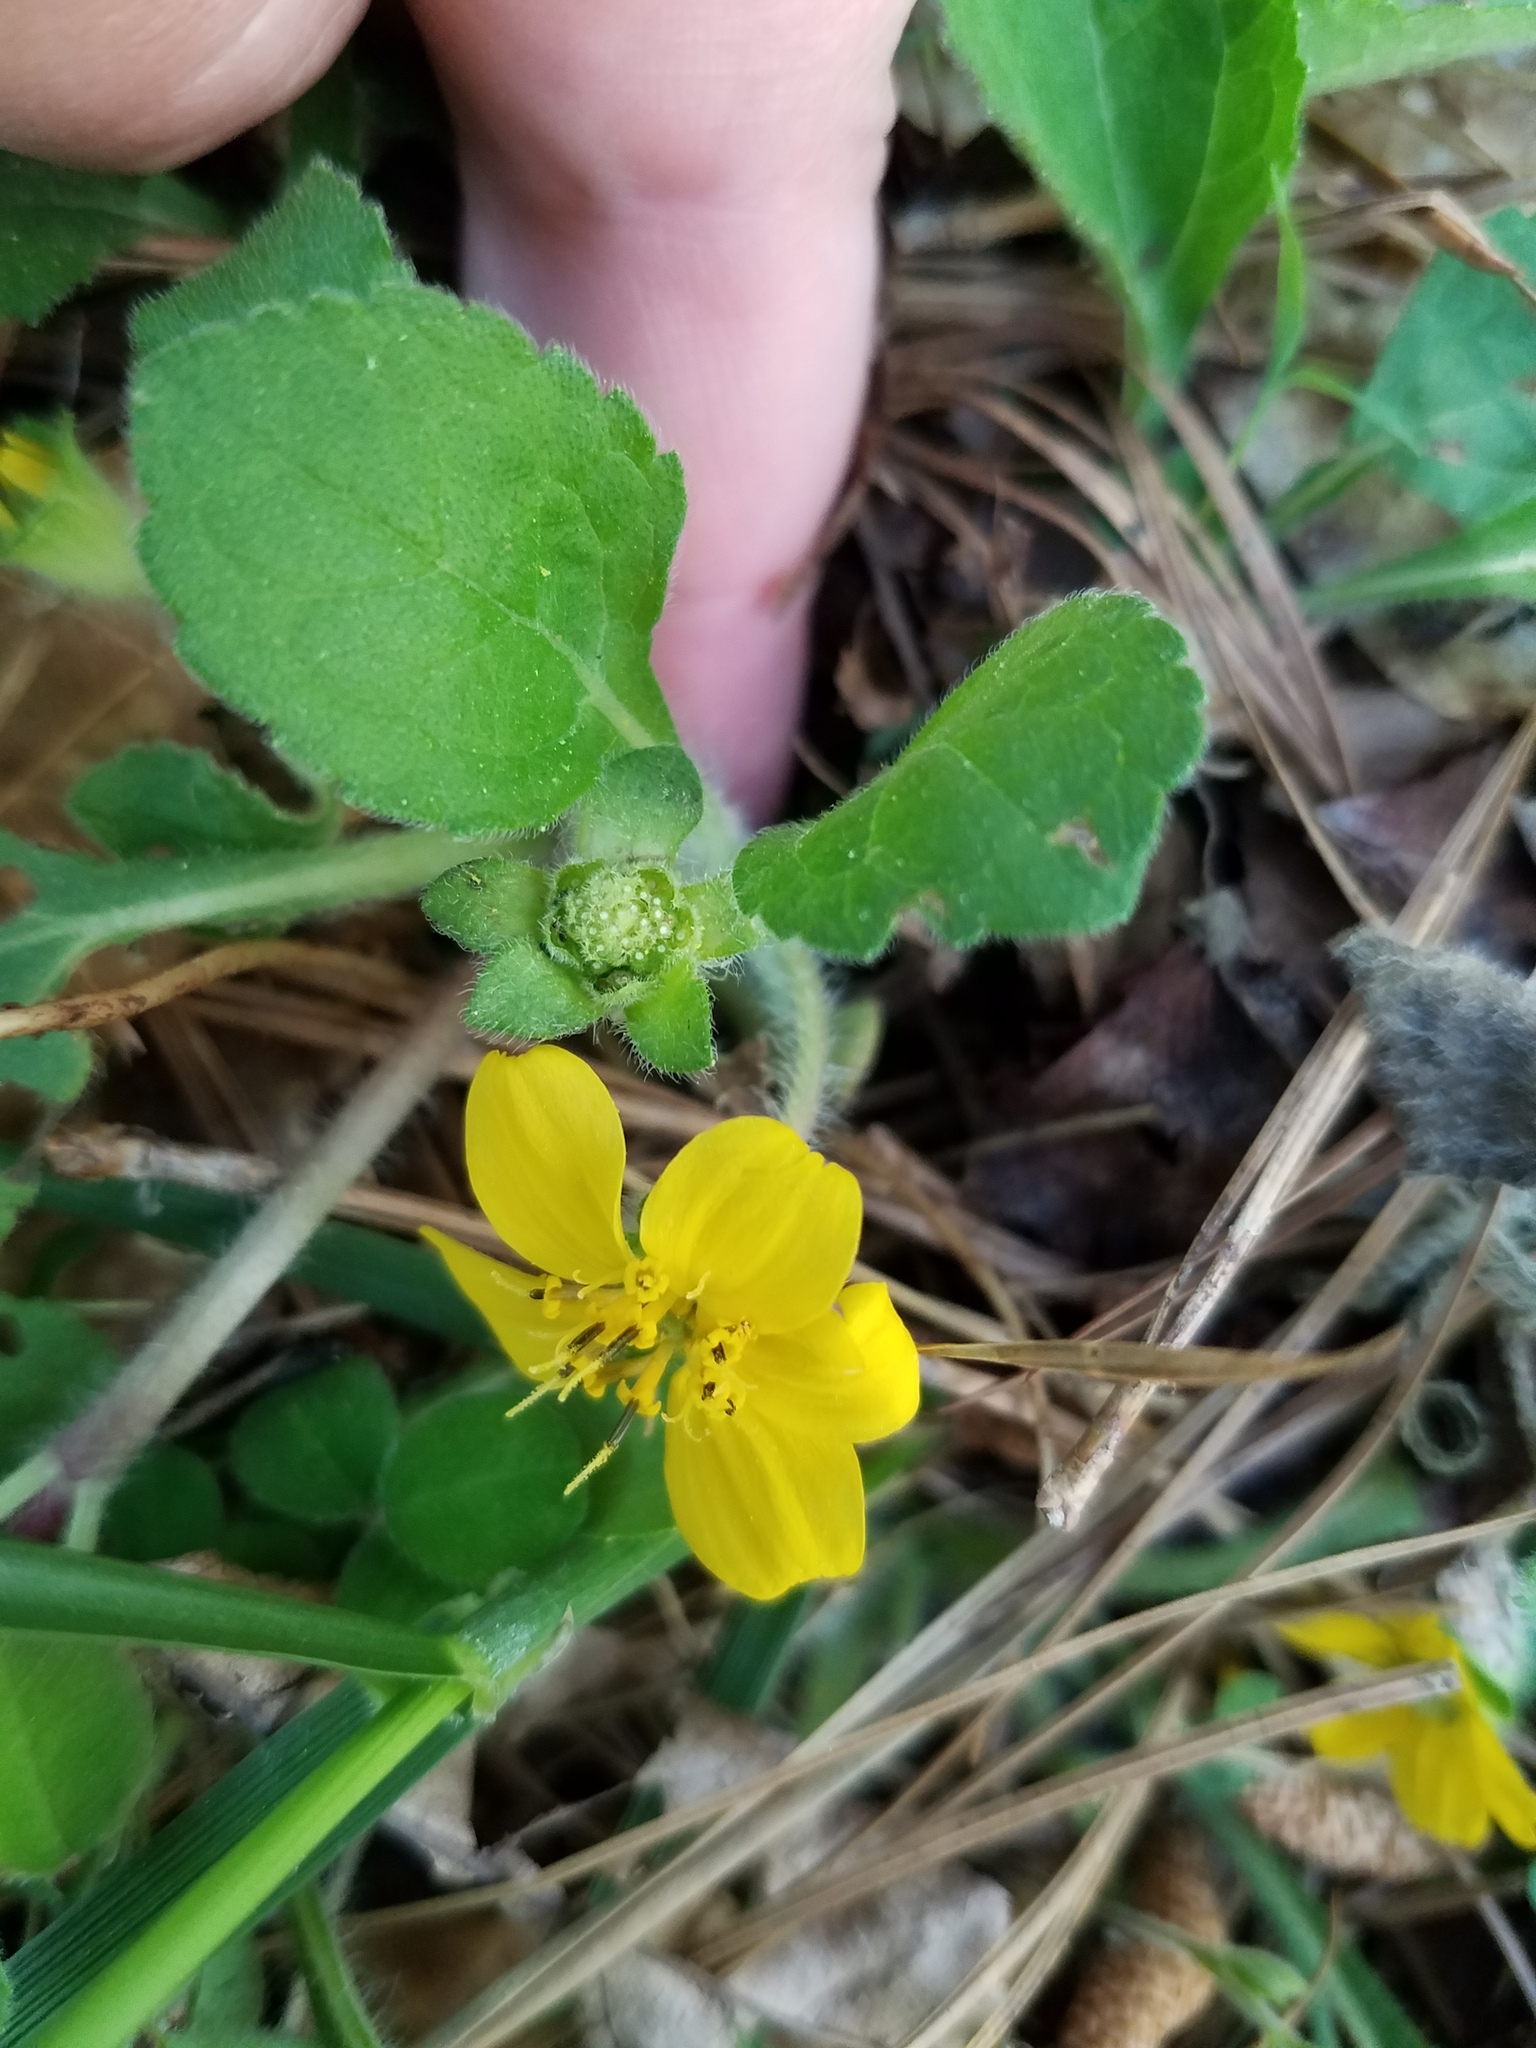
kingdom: Plantae
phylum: Tracheophyta
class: Magnoliopsida
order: Asterales
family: Asteraceae
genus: Chrysogonum
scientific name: Chrysogonum virginianum
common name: Golden-knee
